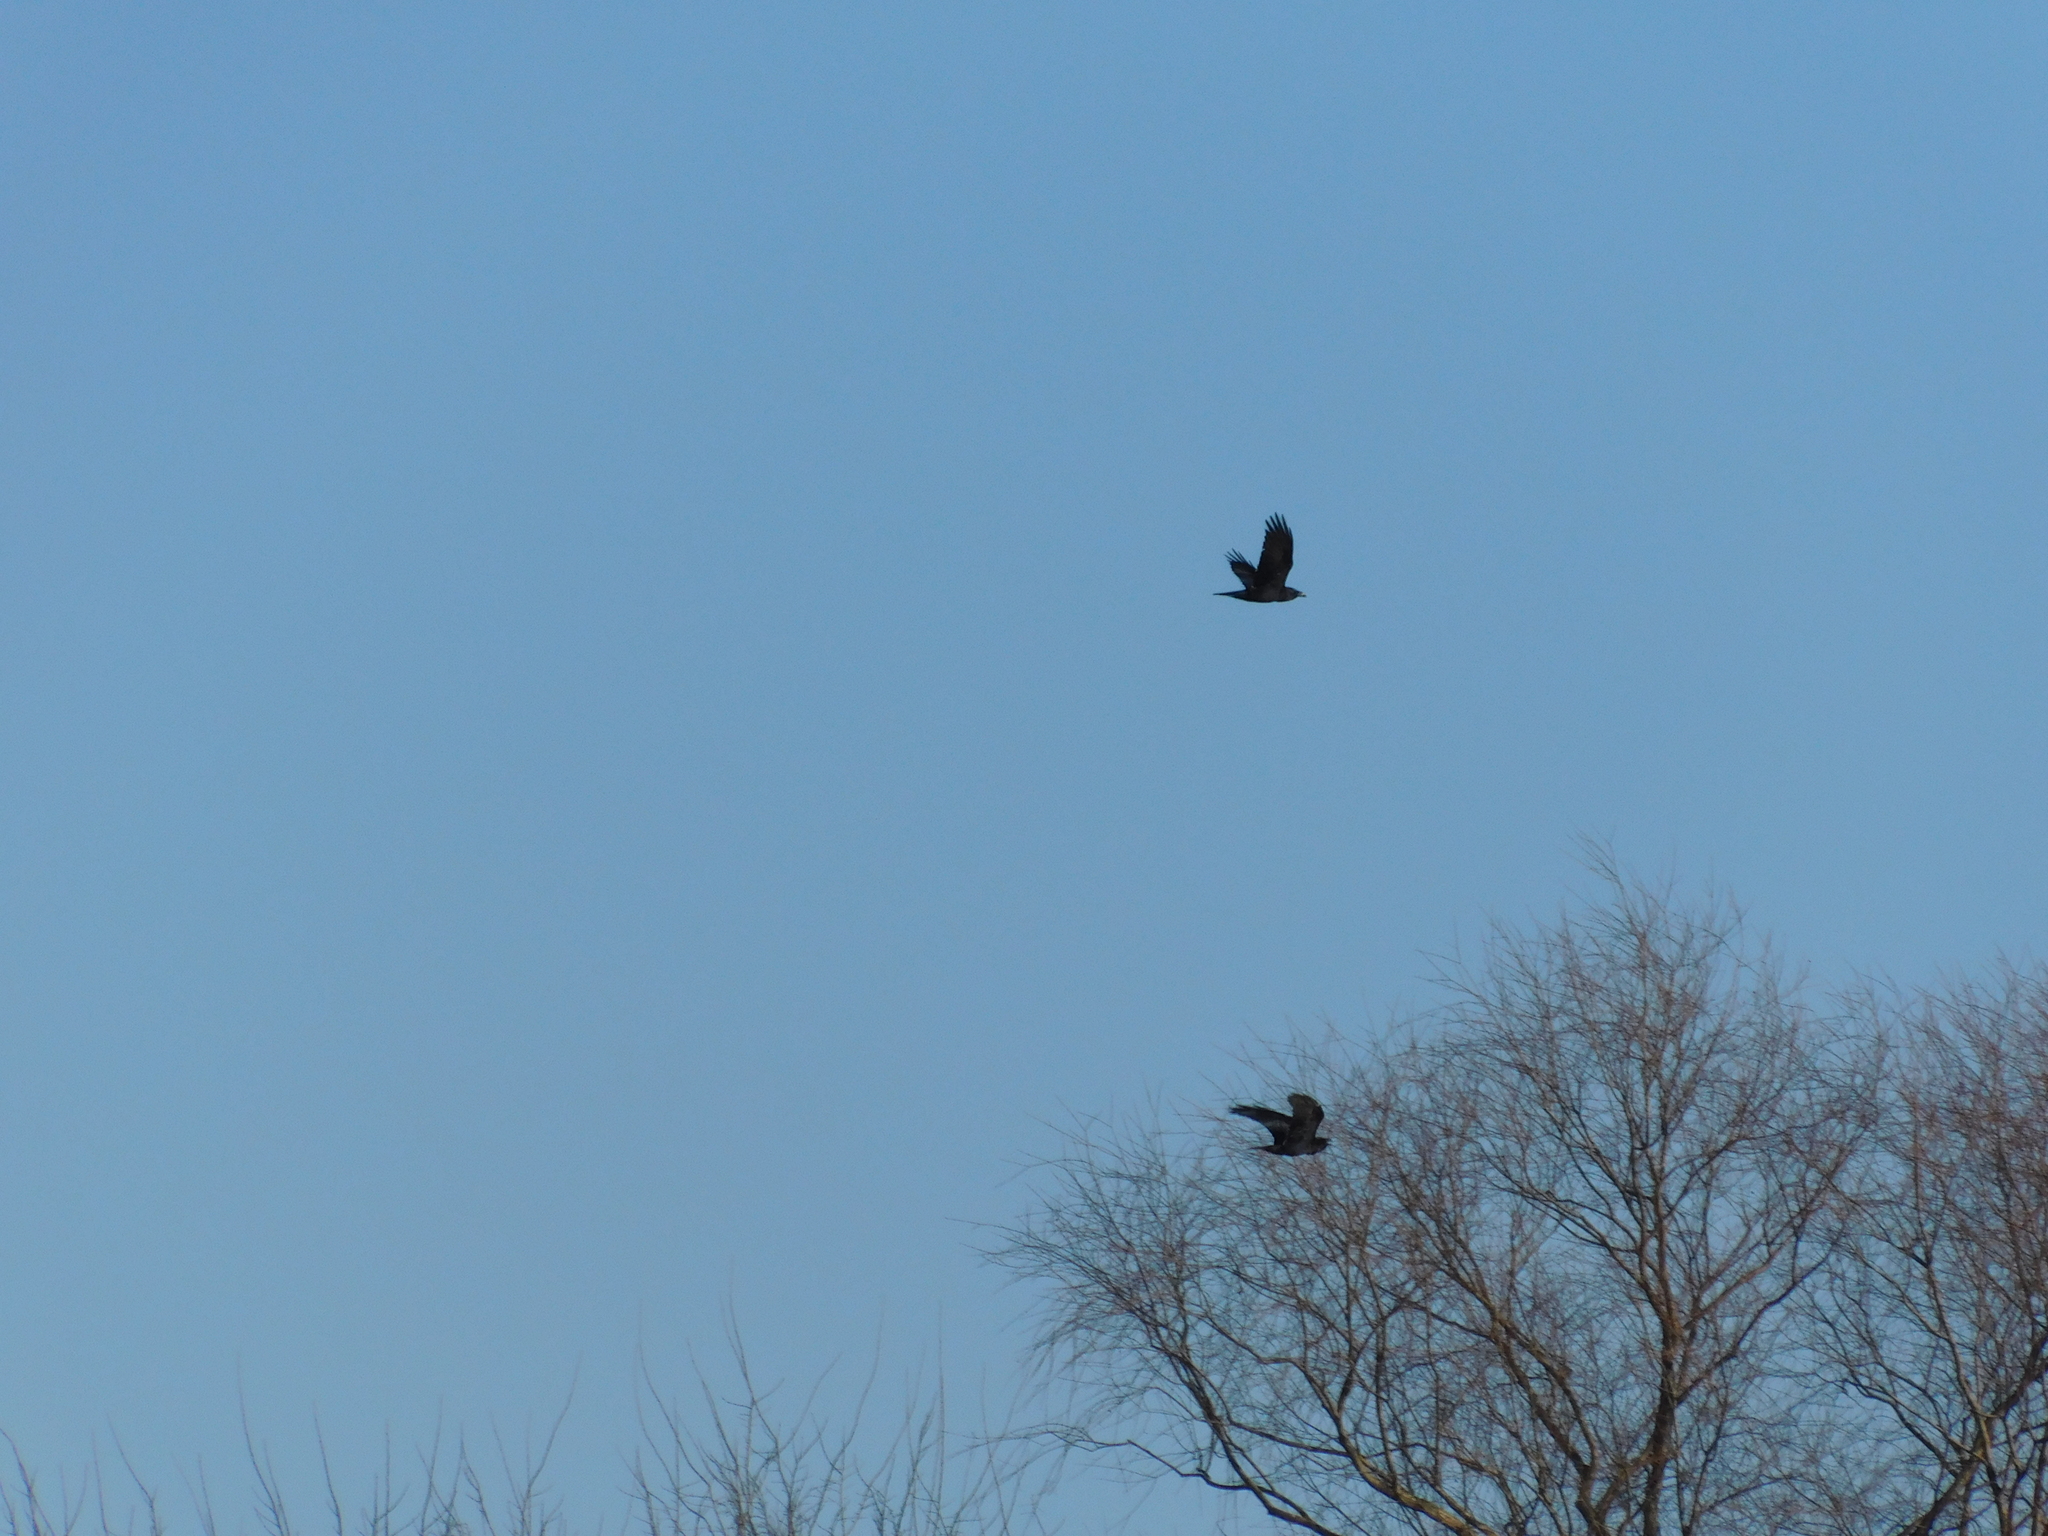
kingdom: Animalia
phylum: Chordata
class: Aves
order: Passeriformes
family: Corvidae
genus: Corvus
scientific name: Corvus corax
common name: Common raven
